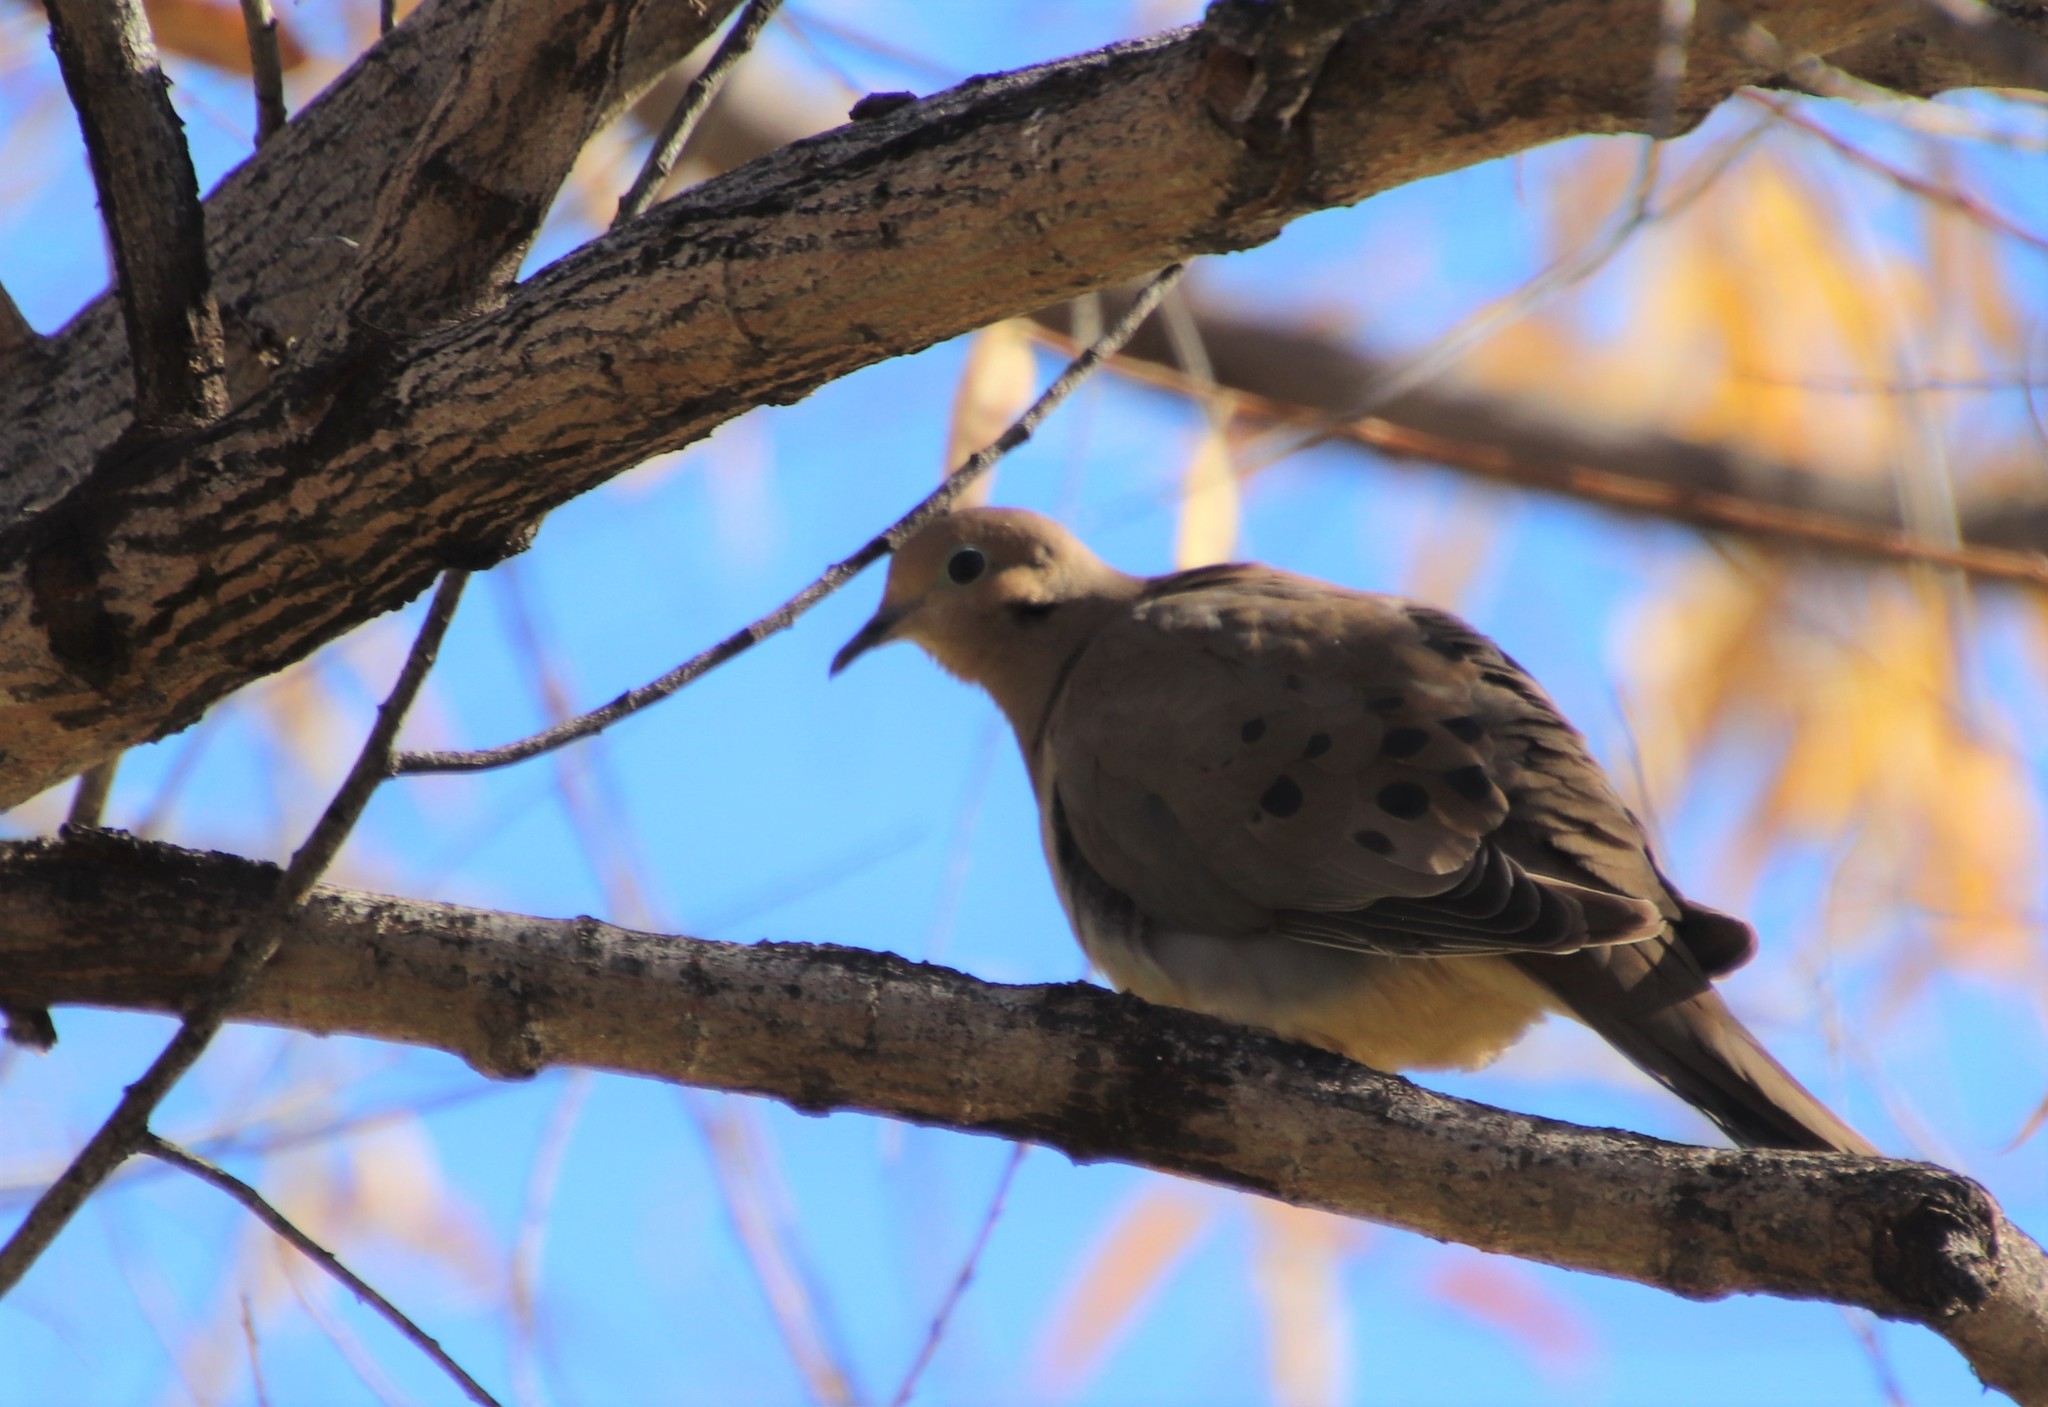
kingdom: Animalia
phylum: Chordata
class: Aves
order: Columbiformes
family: Columbidae
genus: Zenaida
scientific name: Zenaida macroura
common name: Mourning dove
